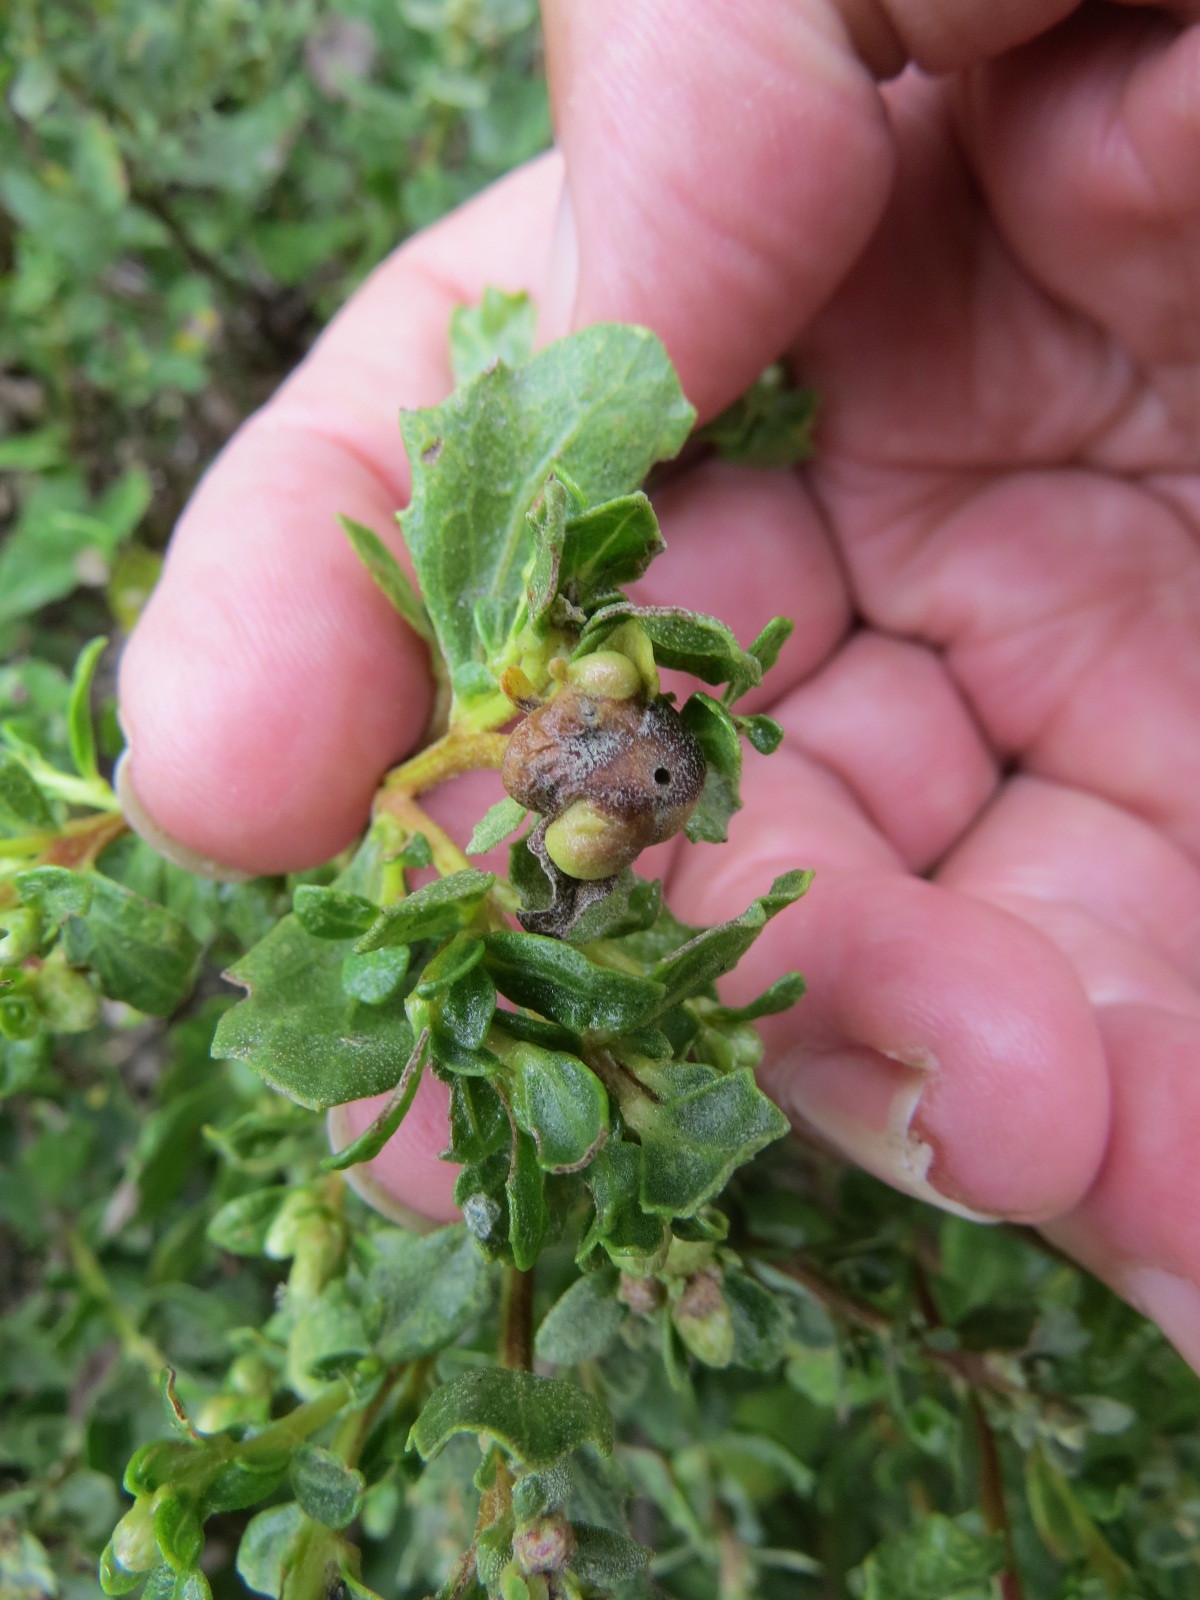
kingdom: Animalia
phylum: Arthropoda
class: Insecta
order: Diptera
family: Cecidomyiidae
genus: Rhopalomyia
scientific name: Rhopalomyia californica
